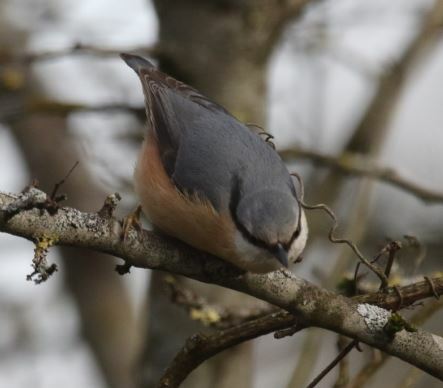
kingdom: Animalia
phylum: Chordata
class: Aves
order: Passeriformes
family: Sittidae
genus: Sitta
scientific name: Sitta europaea
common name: Eurasian nuthatch
